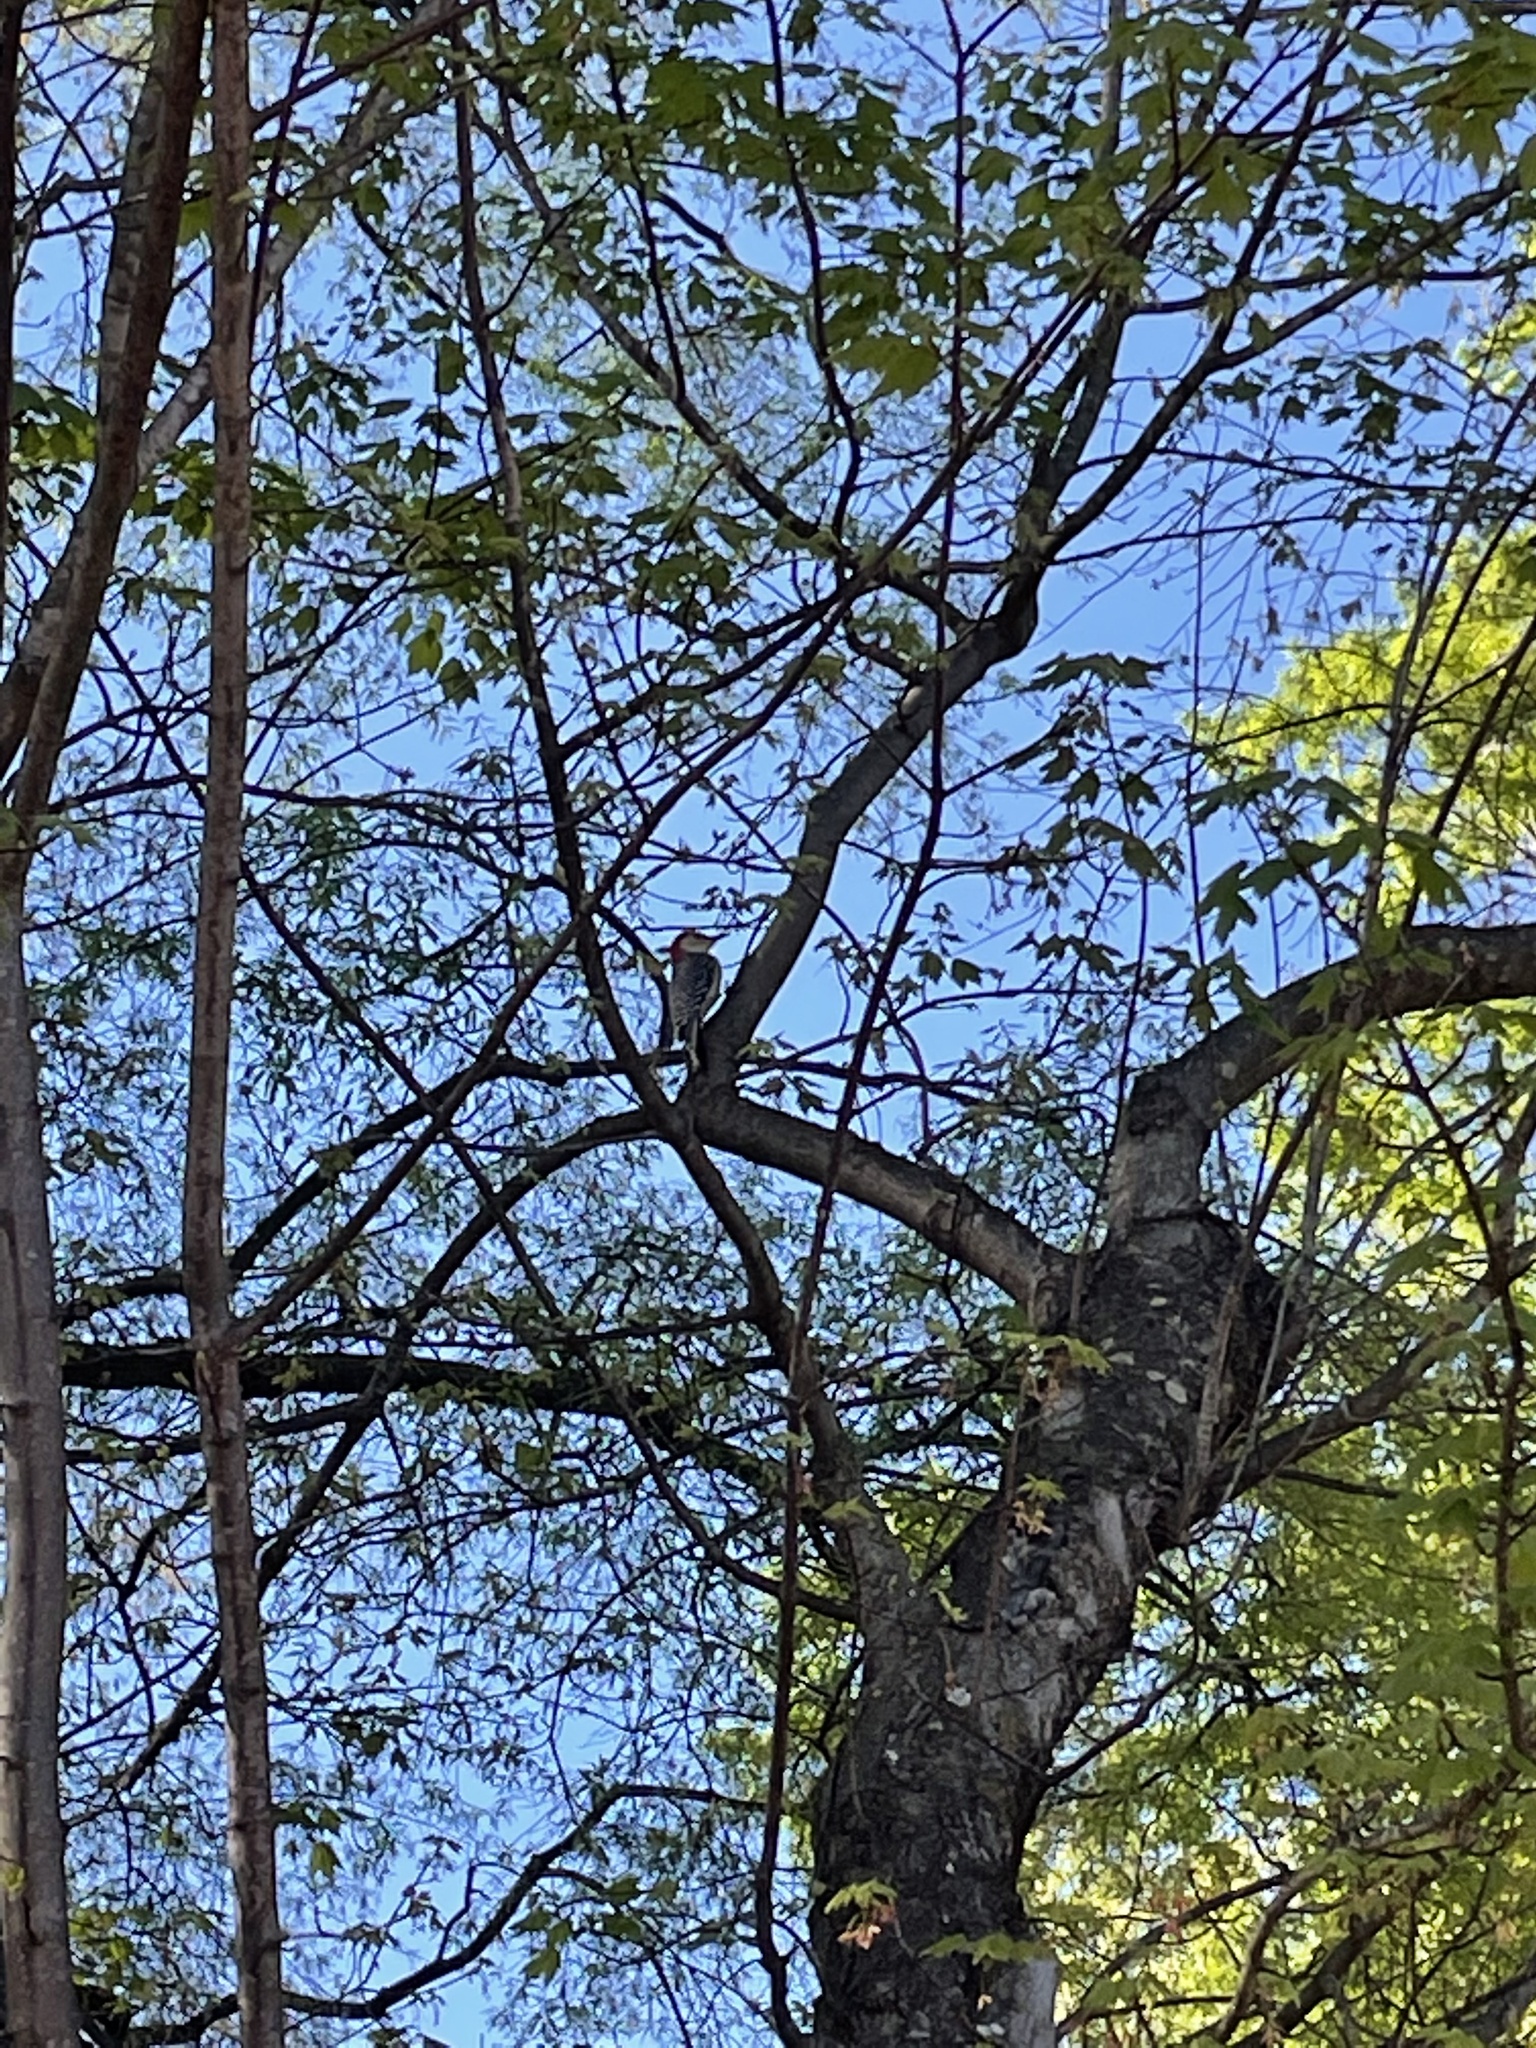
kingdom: Animalia
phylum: Chordata
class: Aves
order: Piciformes
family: Picidae
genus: Melanerpes
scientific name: Melanerpes carolinus
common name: Red-bellied woodpecker
